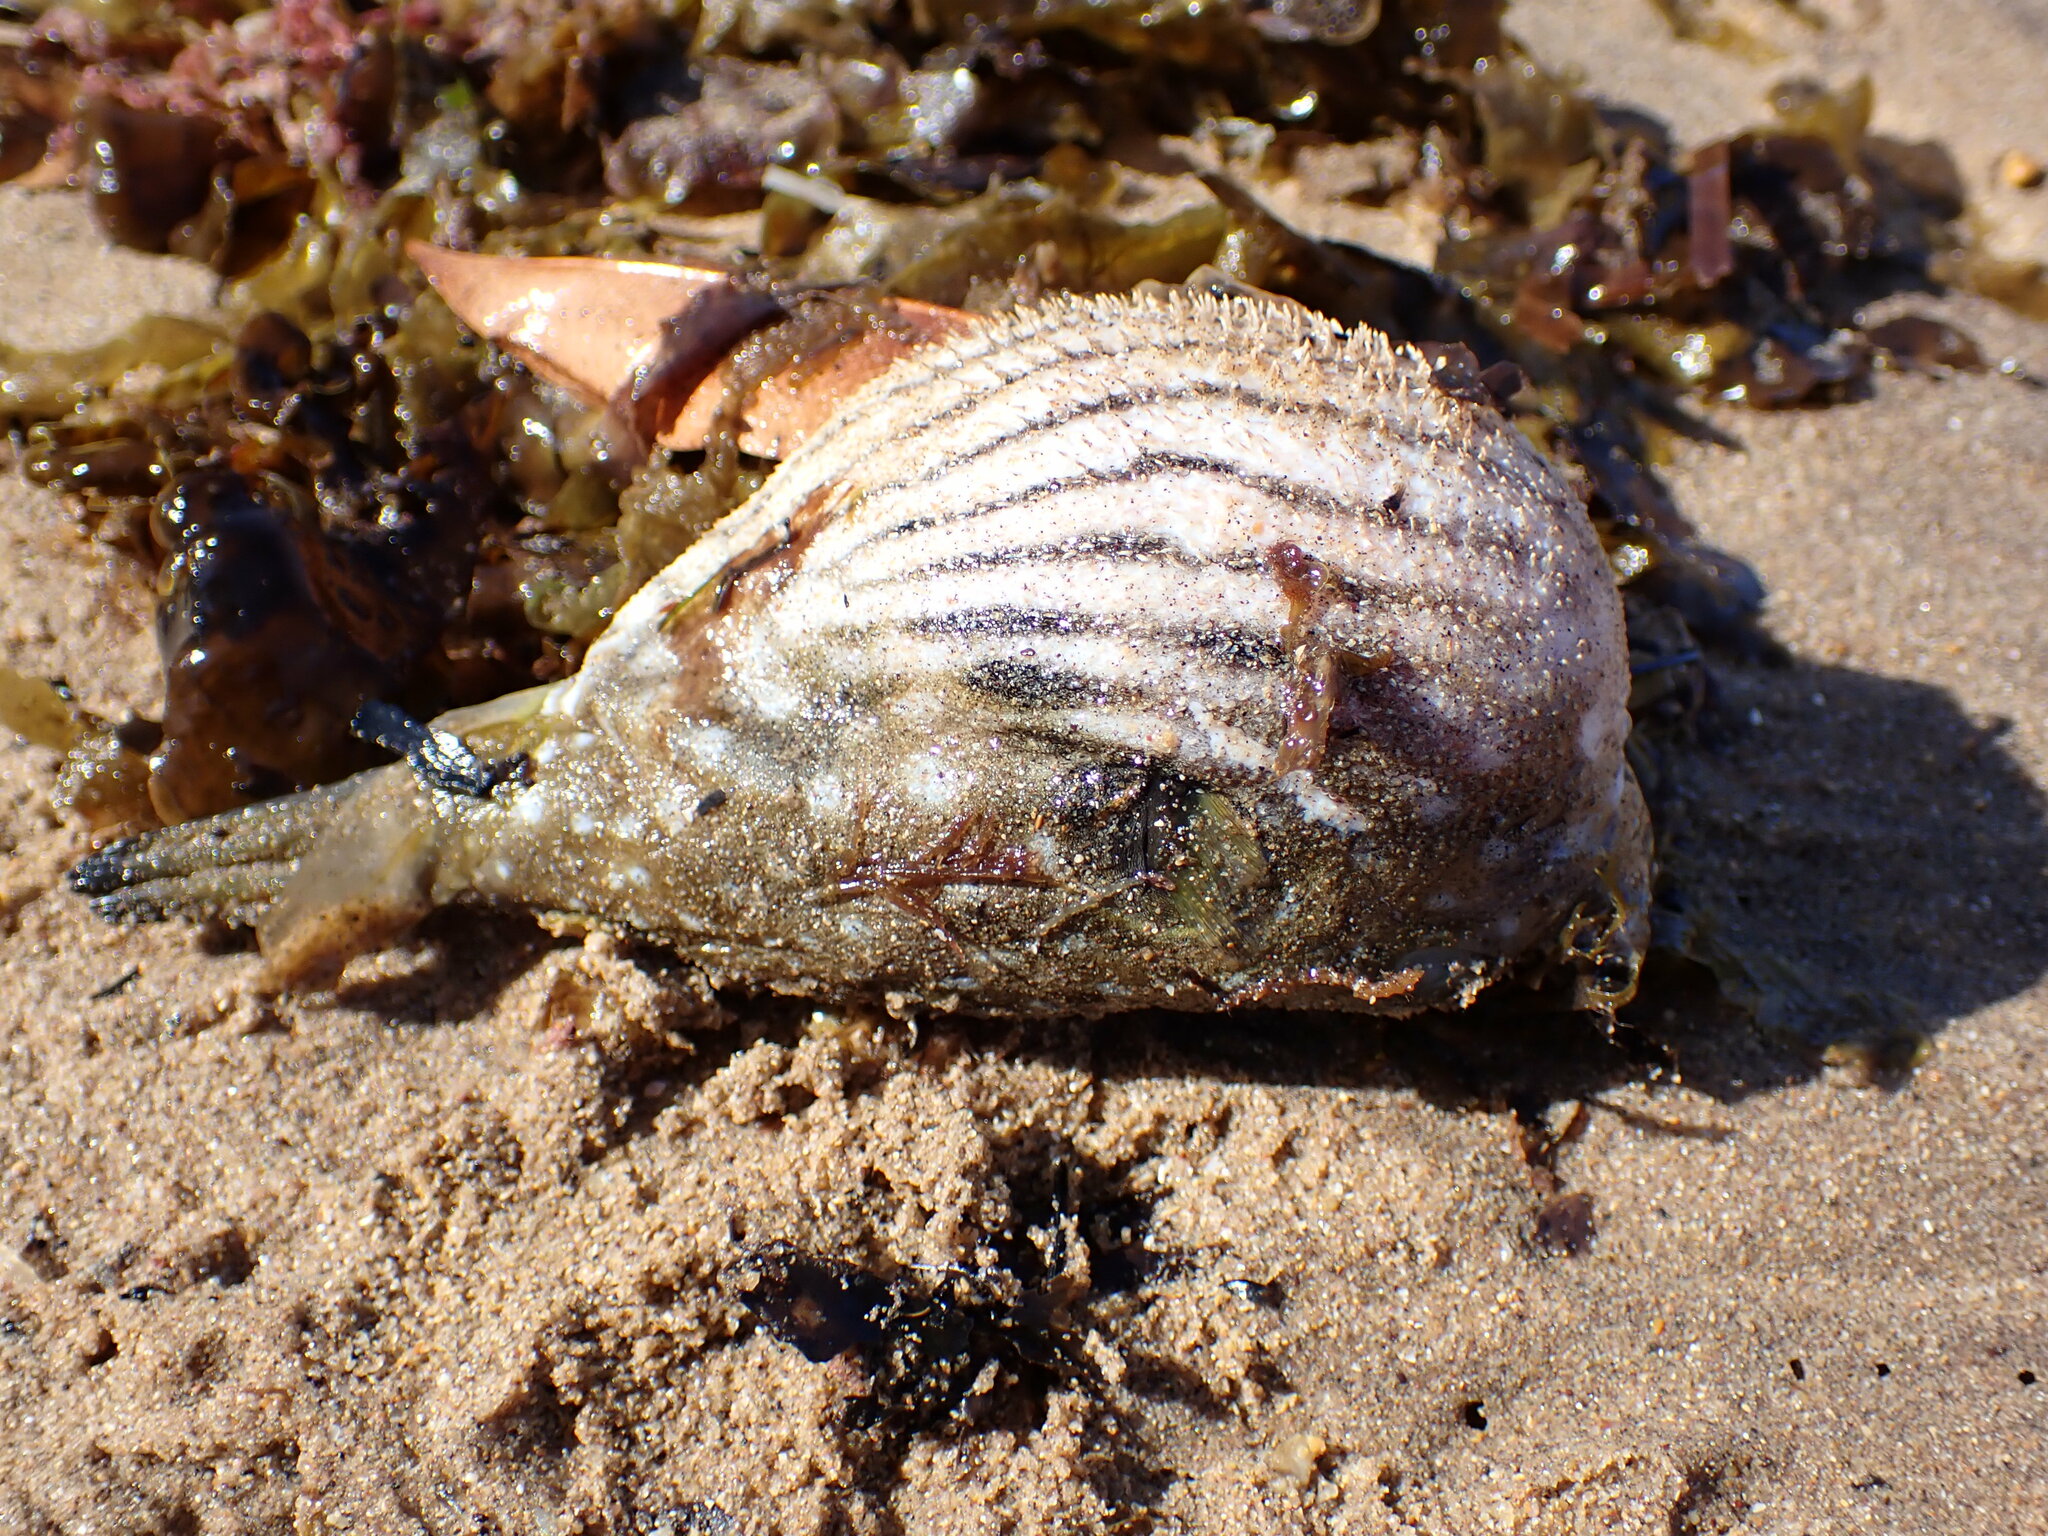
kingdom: Animalia
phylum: Chordata
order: Tetraodontiformes
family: Tetraodontidae
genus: Arothron
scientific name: Arothron hispidus
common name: Stripebelly puffer
